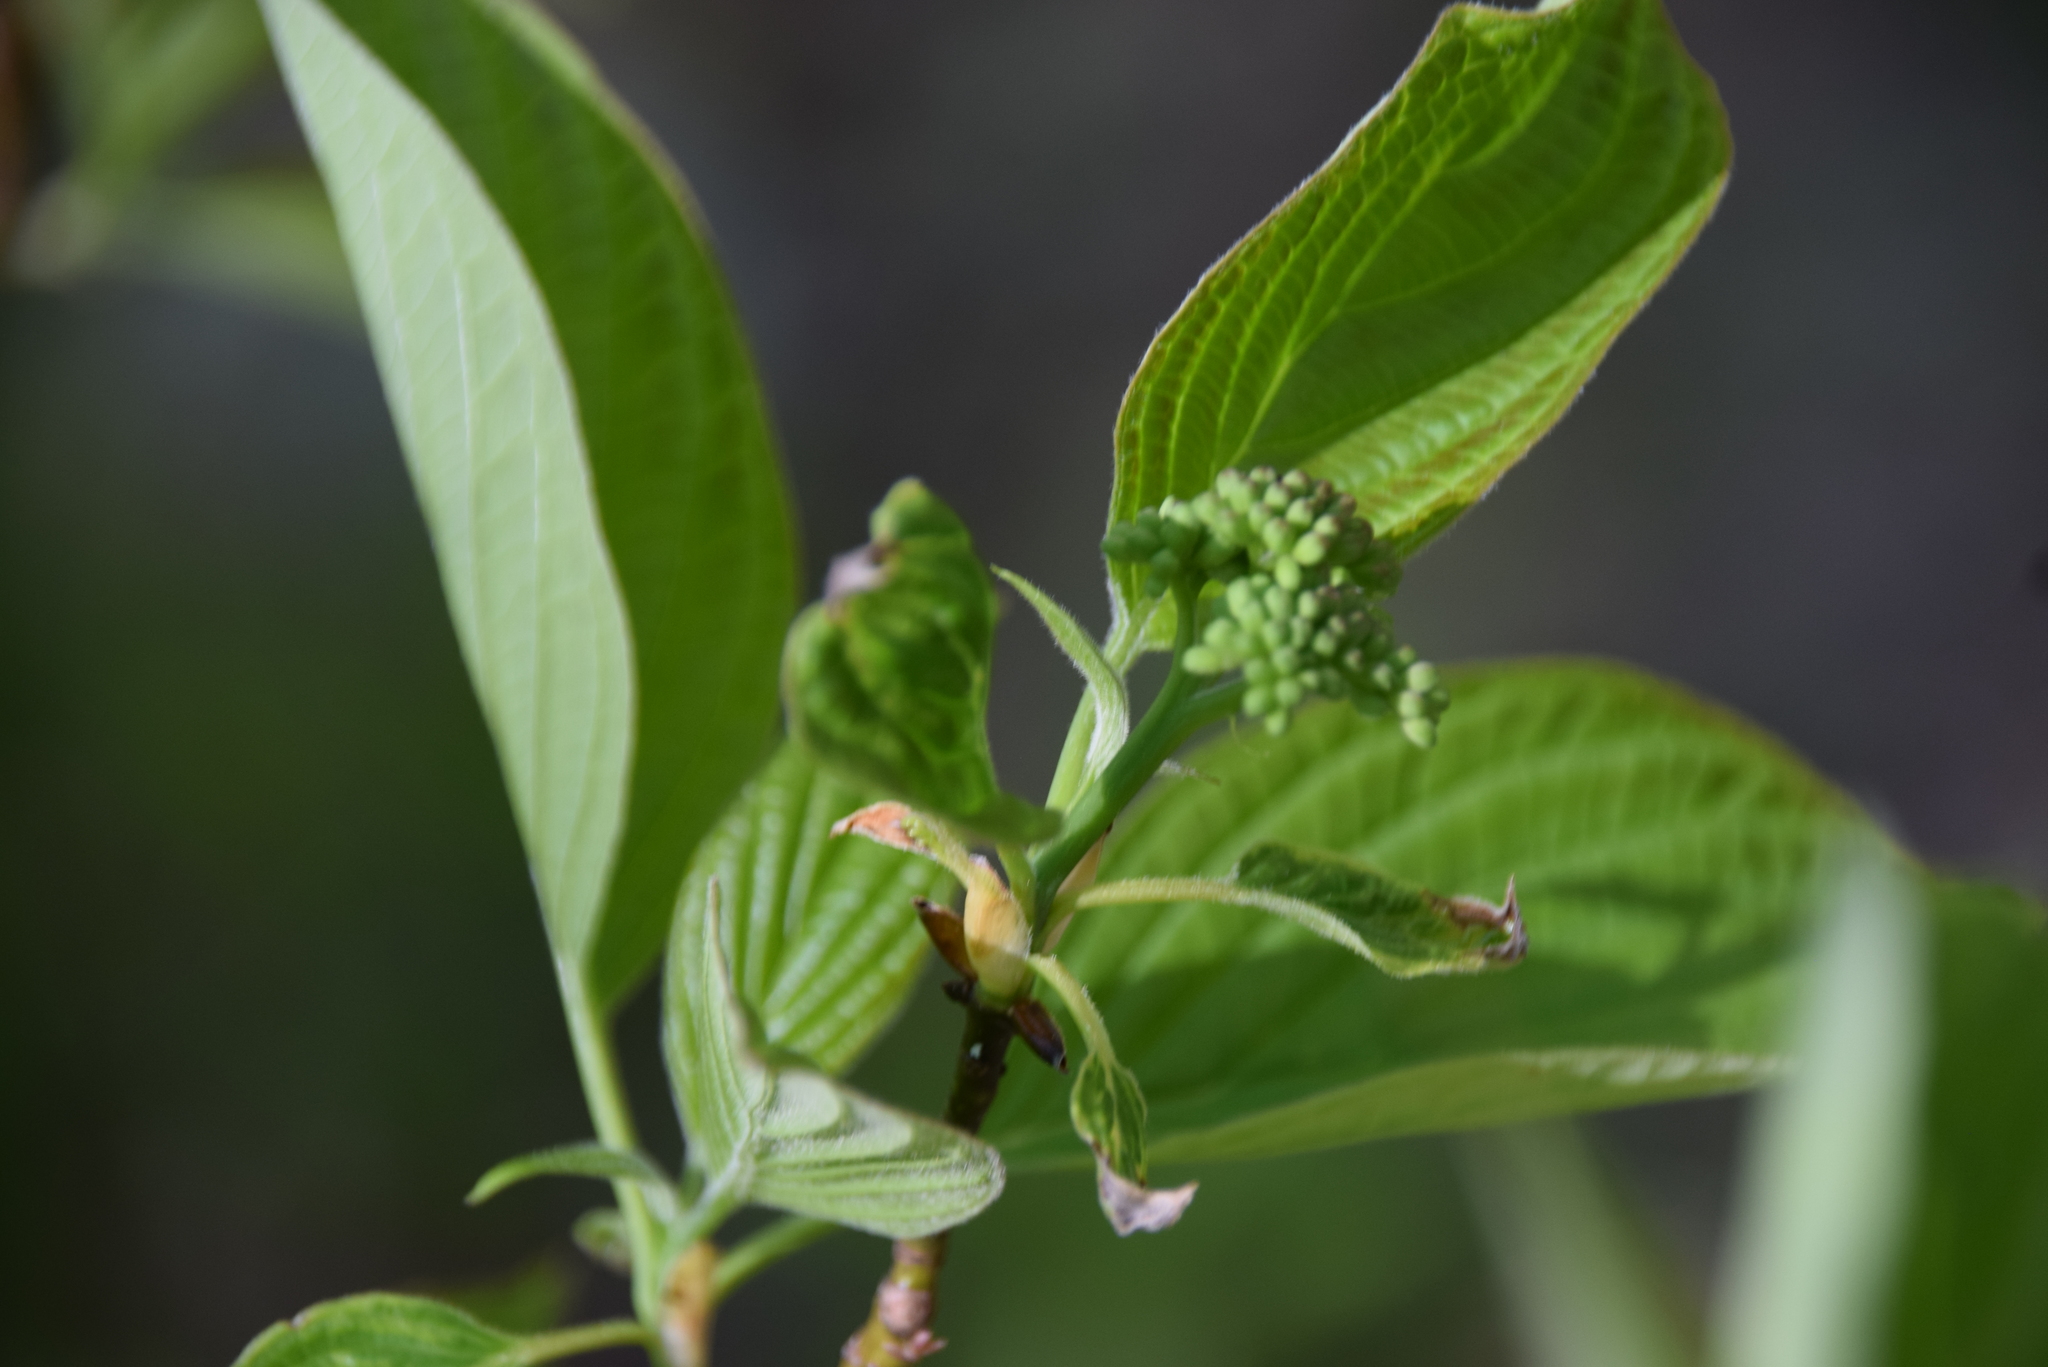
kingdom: Plantae
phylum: Tracheophyta
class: Magnoliopsida
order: Cornales
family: Cornaceae
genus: Cornus
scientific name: Cornus alternifolia
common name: Pagoda dogwood
